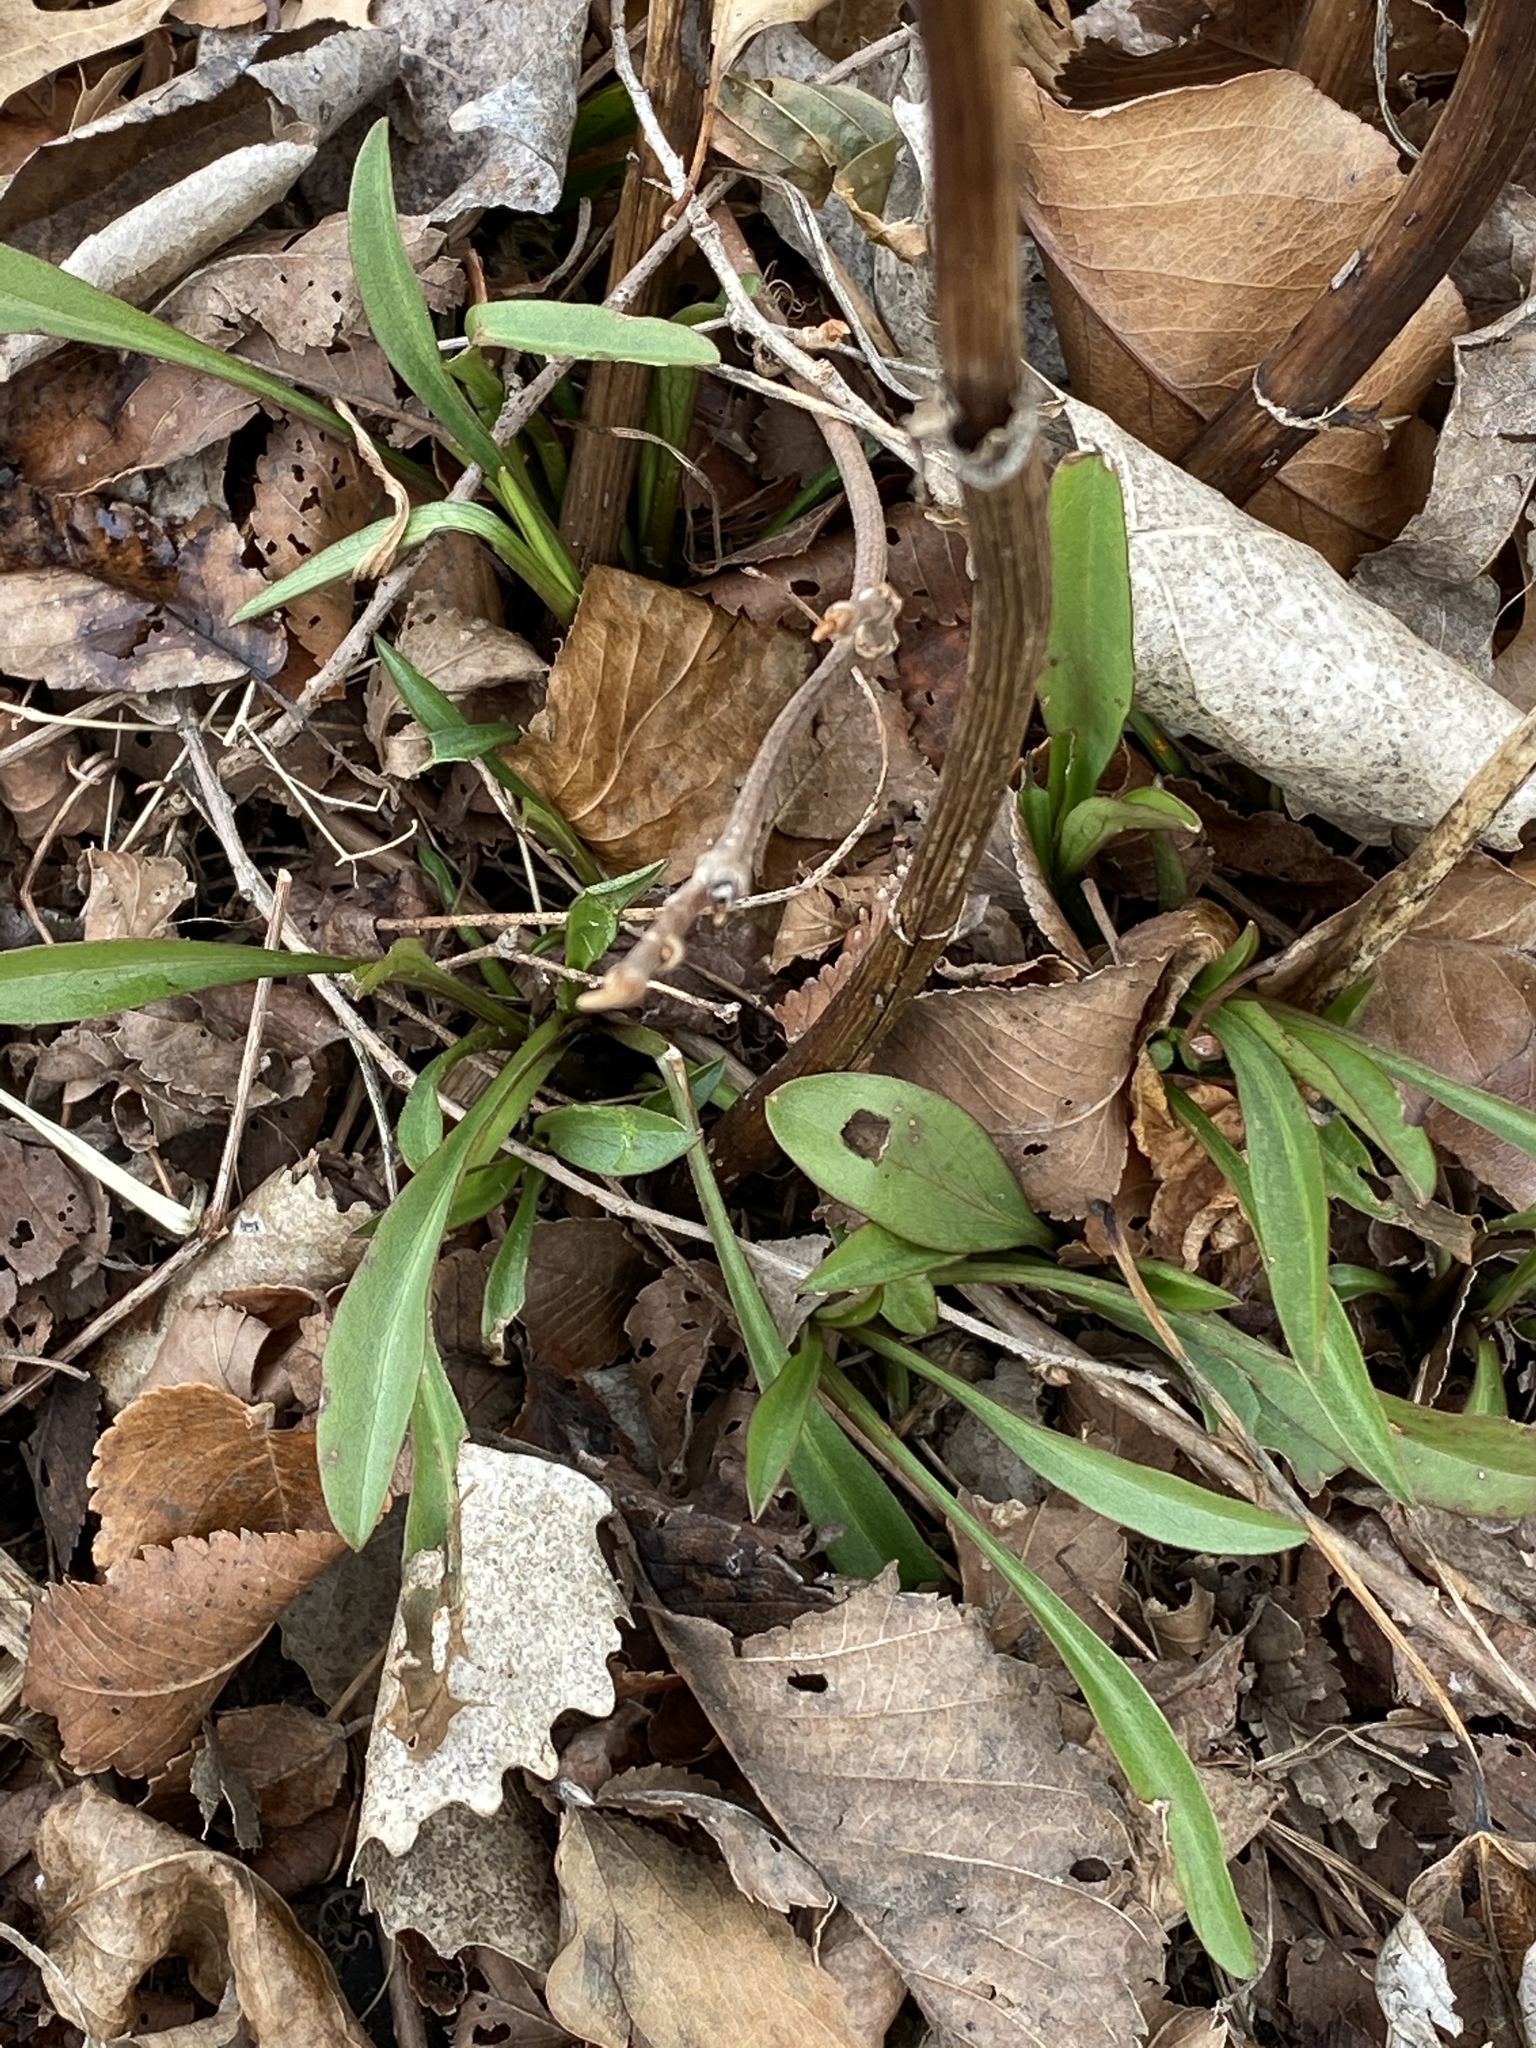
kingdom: Plantae
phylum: Tracheophyta
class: Magnoliopsida
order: Asterales
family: Asteraceae
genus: Solidago
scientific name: Solidago sempervirens
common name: Salt-marsh goldenrod
